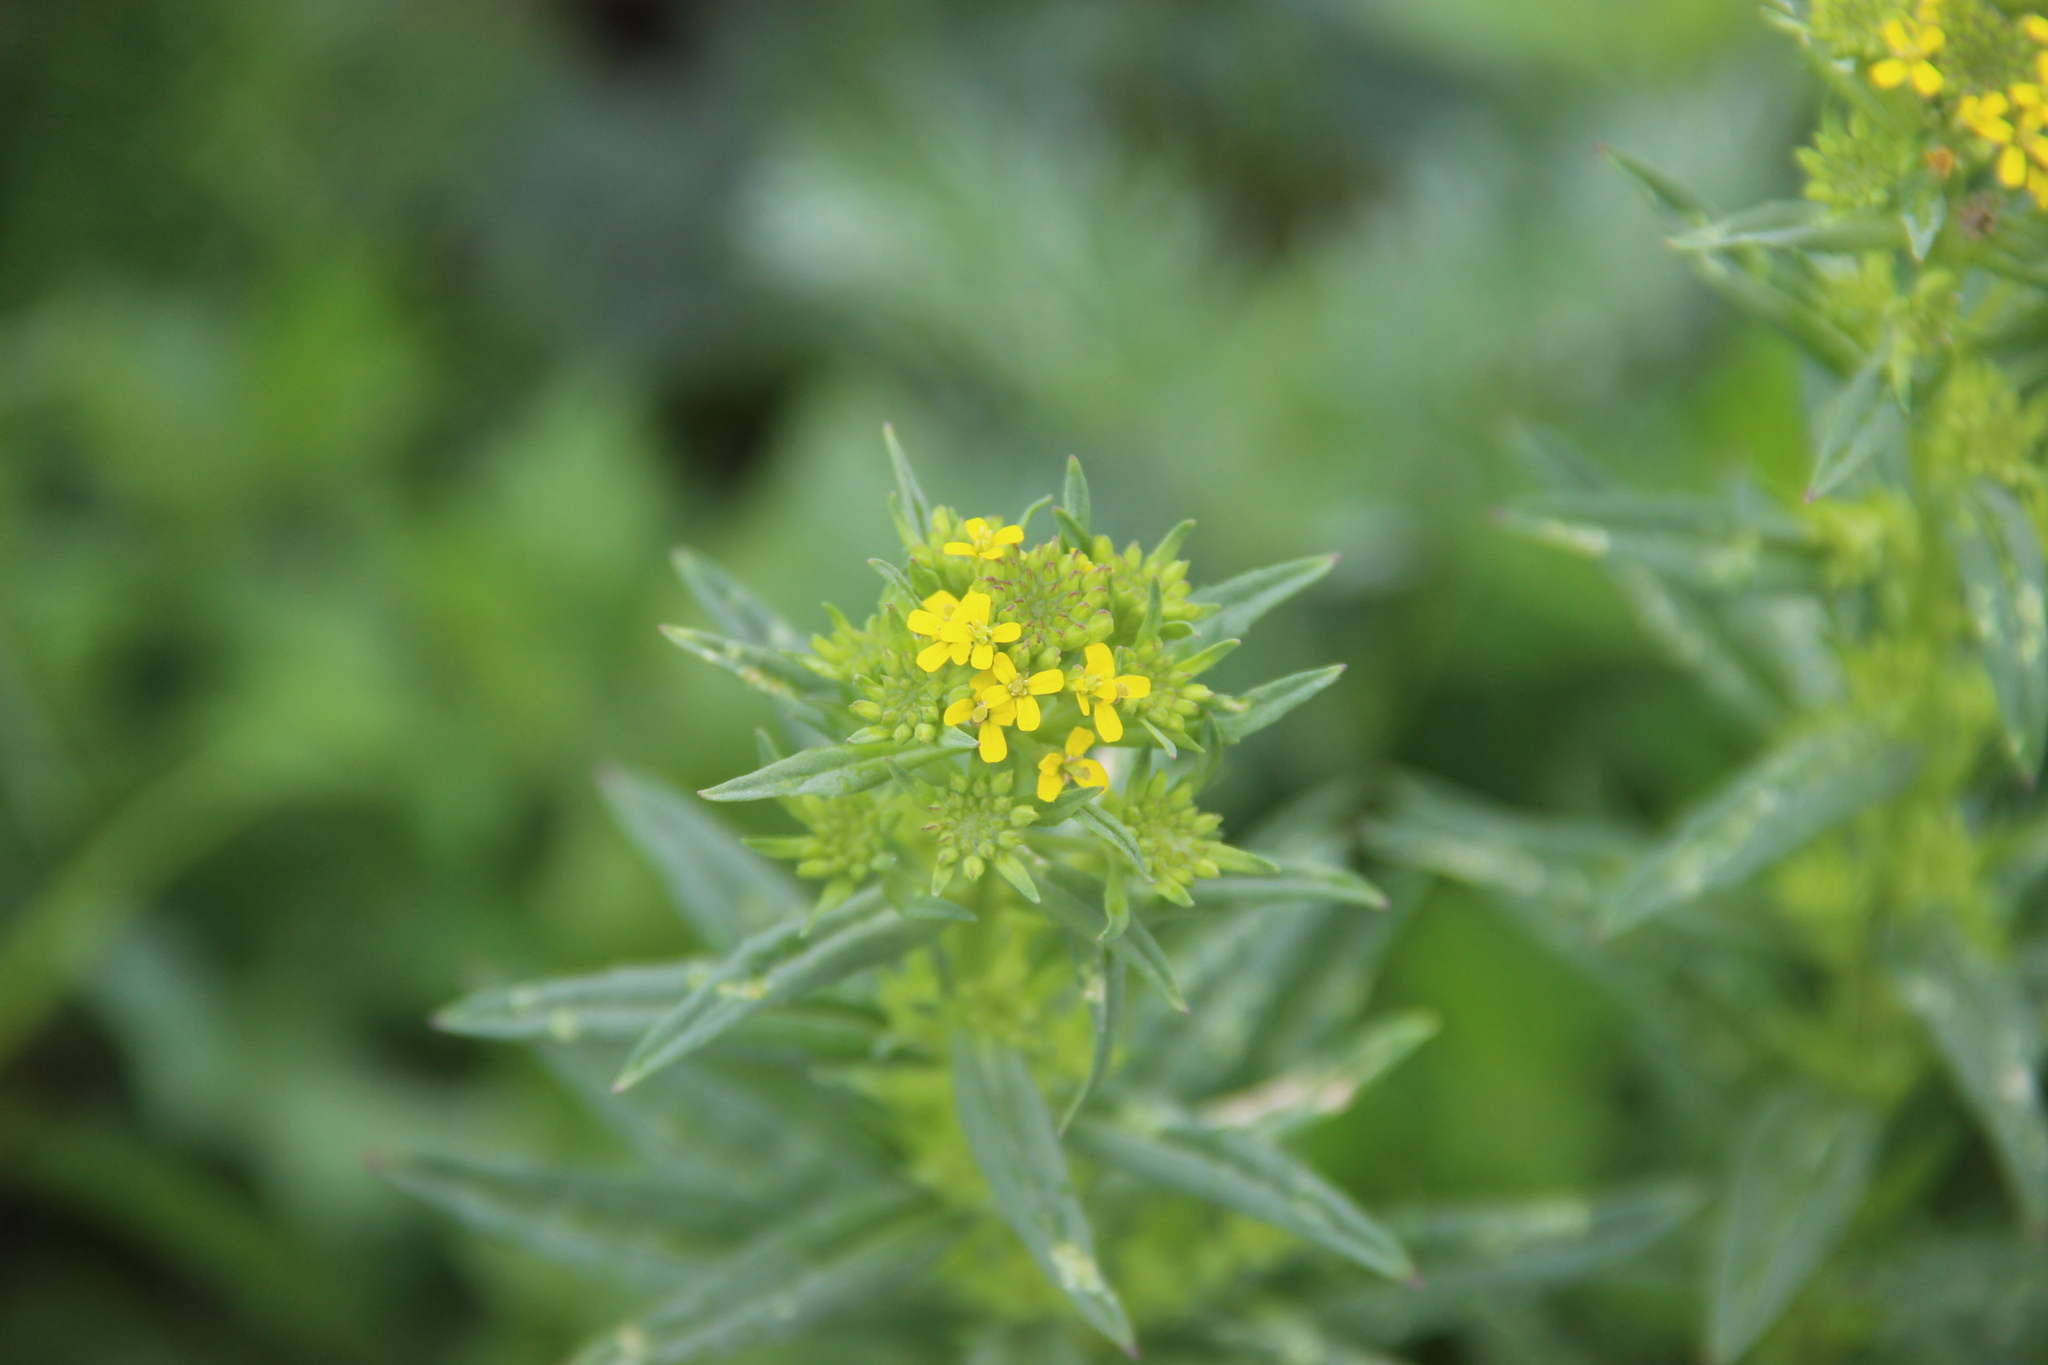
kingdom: Plantae
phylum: Tracheophyta
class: Magnoliopsida
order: Brassicales
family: Brassicaceae
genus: Erysimum
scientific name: Erysimum hieraciifolium
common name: European wallflower
